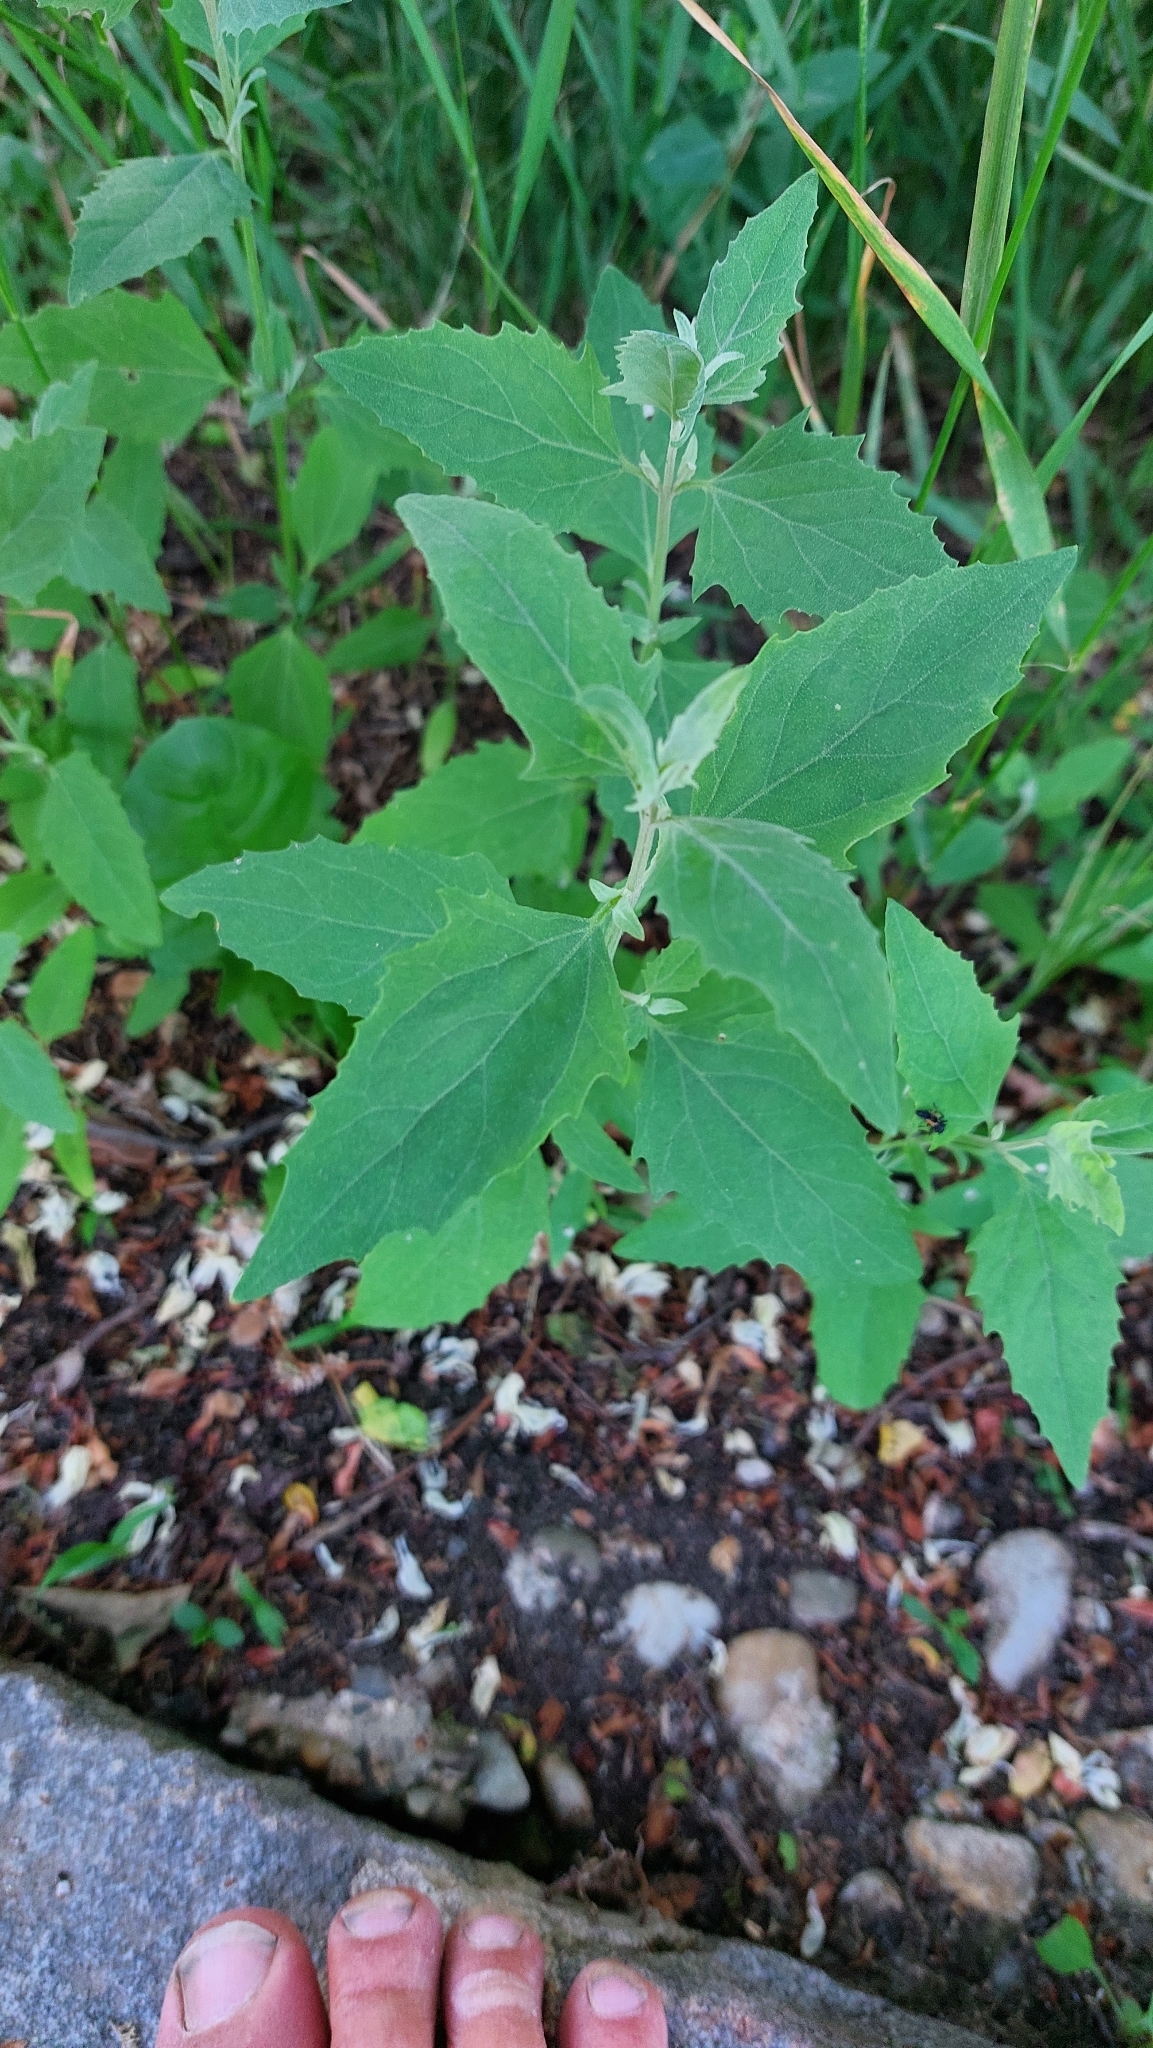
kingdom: Plantae
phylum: Tracheophyta
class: Magnoliopsida
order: Caryophyllales
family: Amaranthaceae
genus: Chenopodium
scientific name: Chenopodium album
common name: Fat-hen
